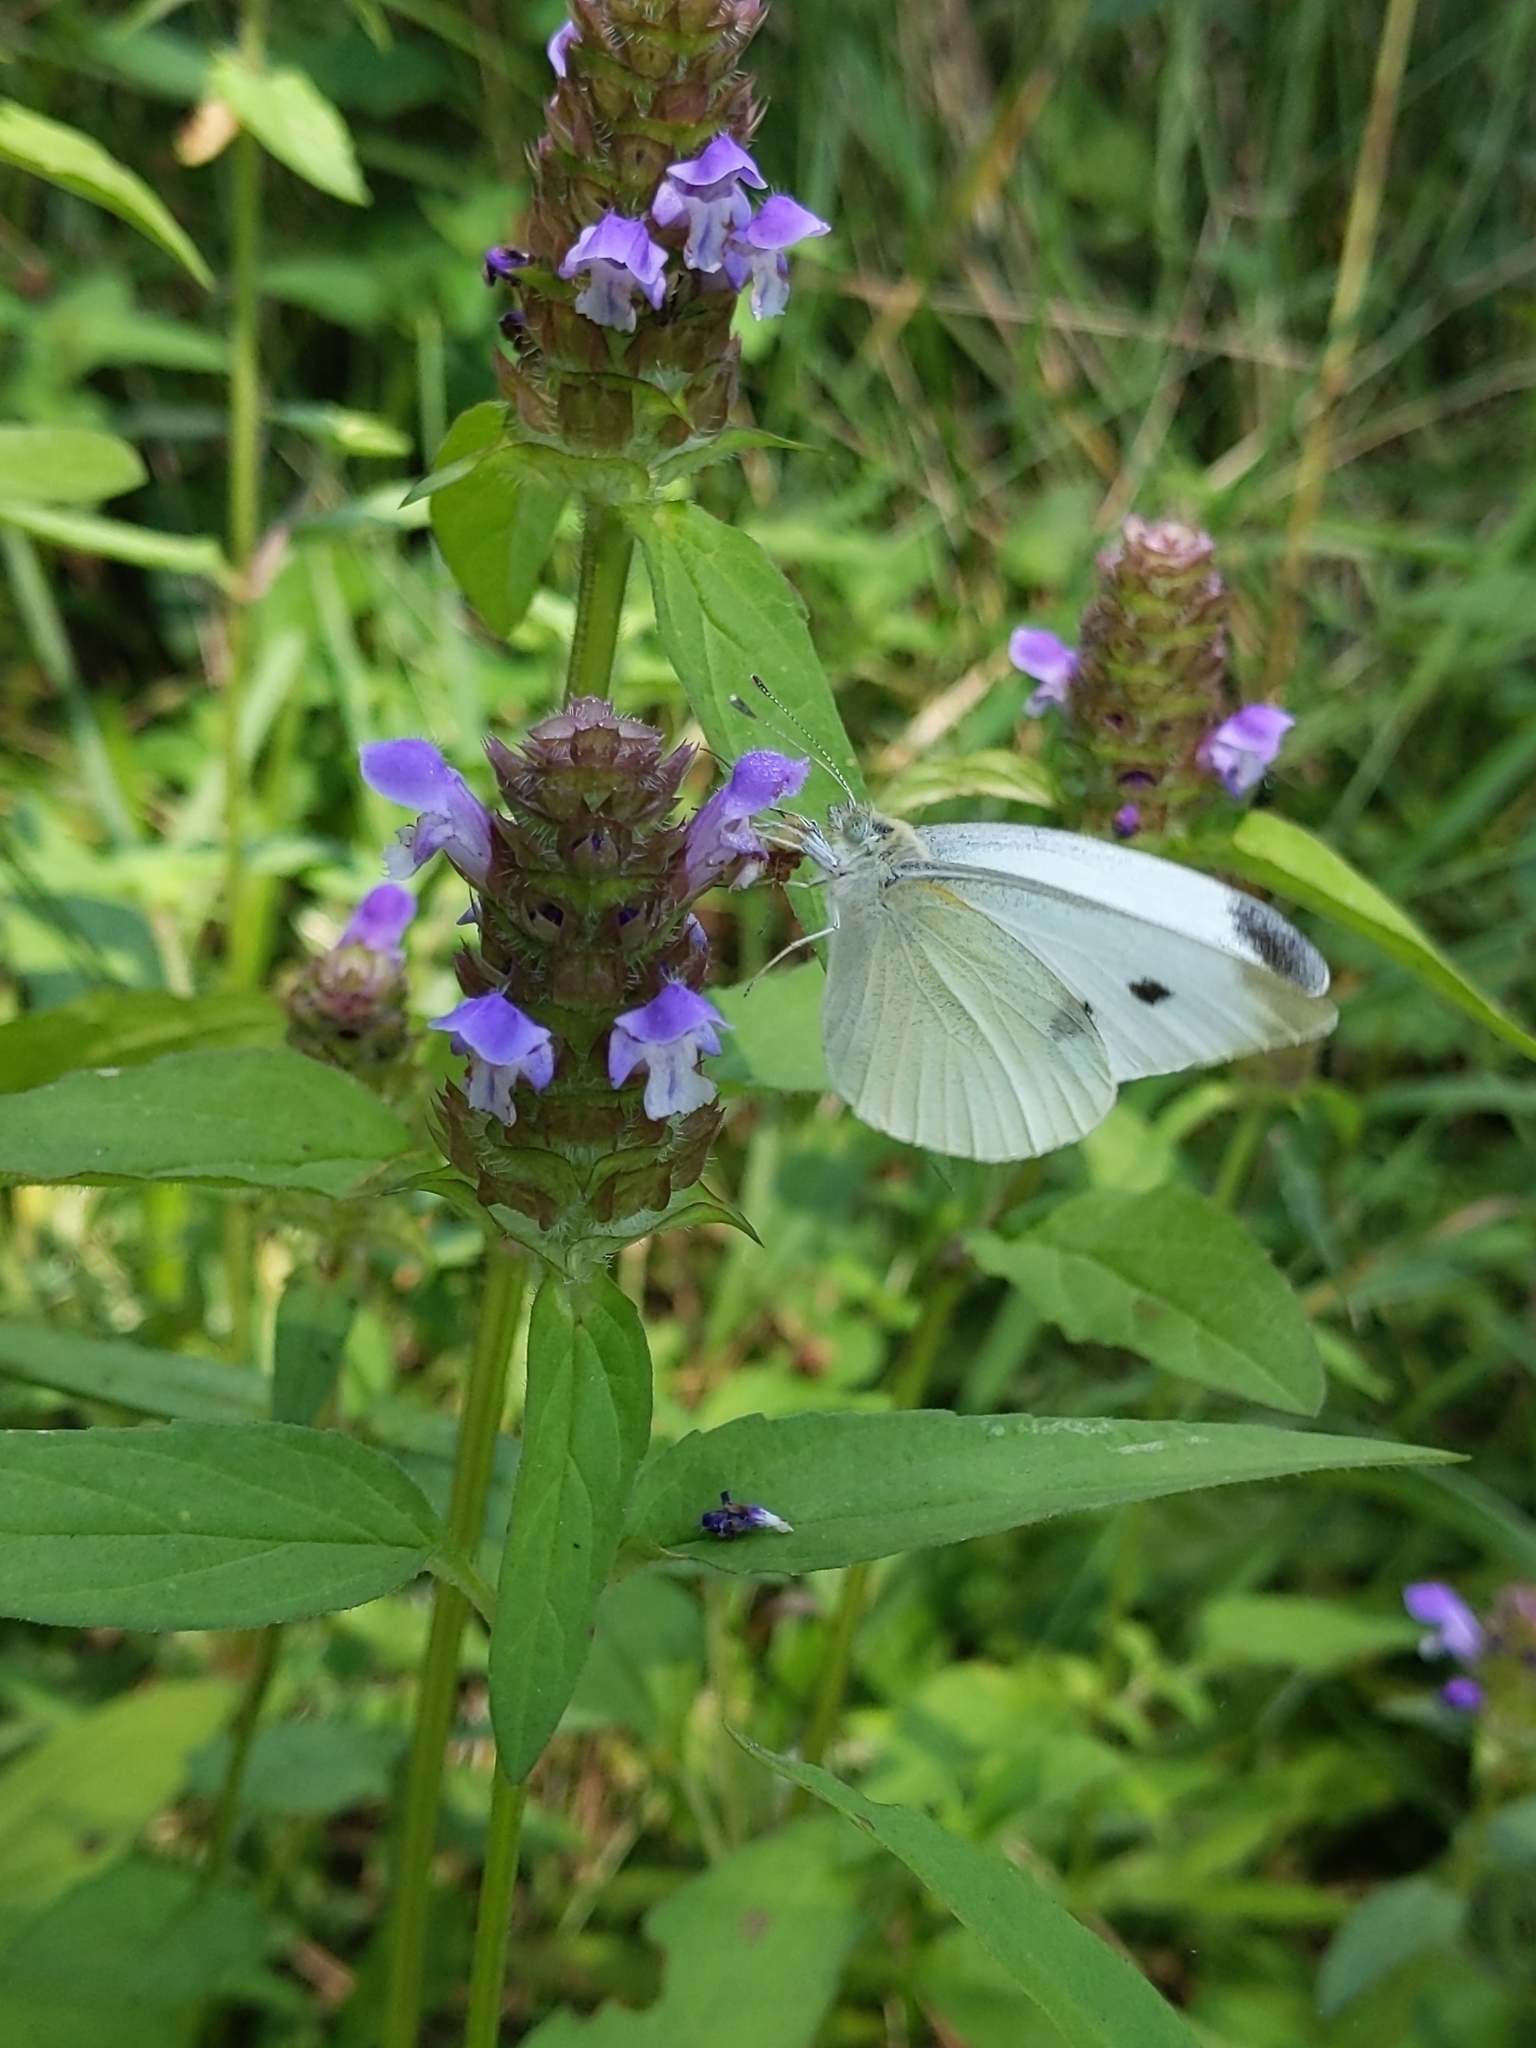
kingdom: Animalia
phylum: Arthropoda
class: Insecta
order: Lepidoptera
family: Pieridae
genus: Pieris
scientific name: Pieris rapae
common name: Small white
